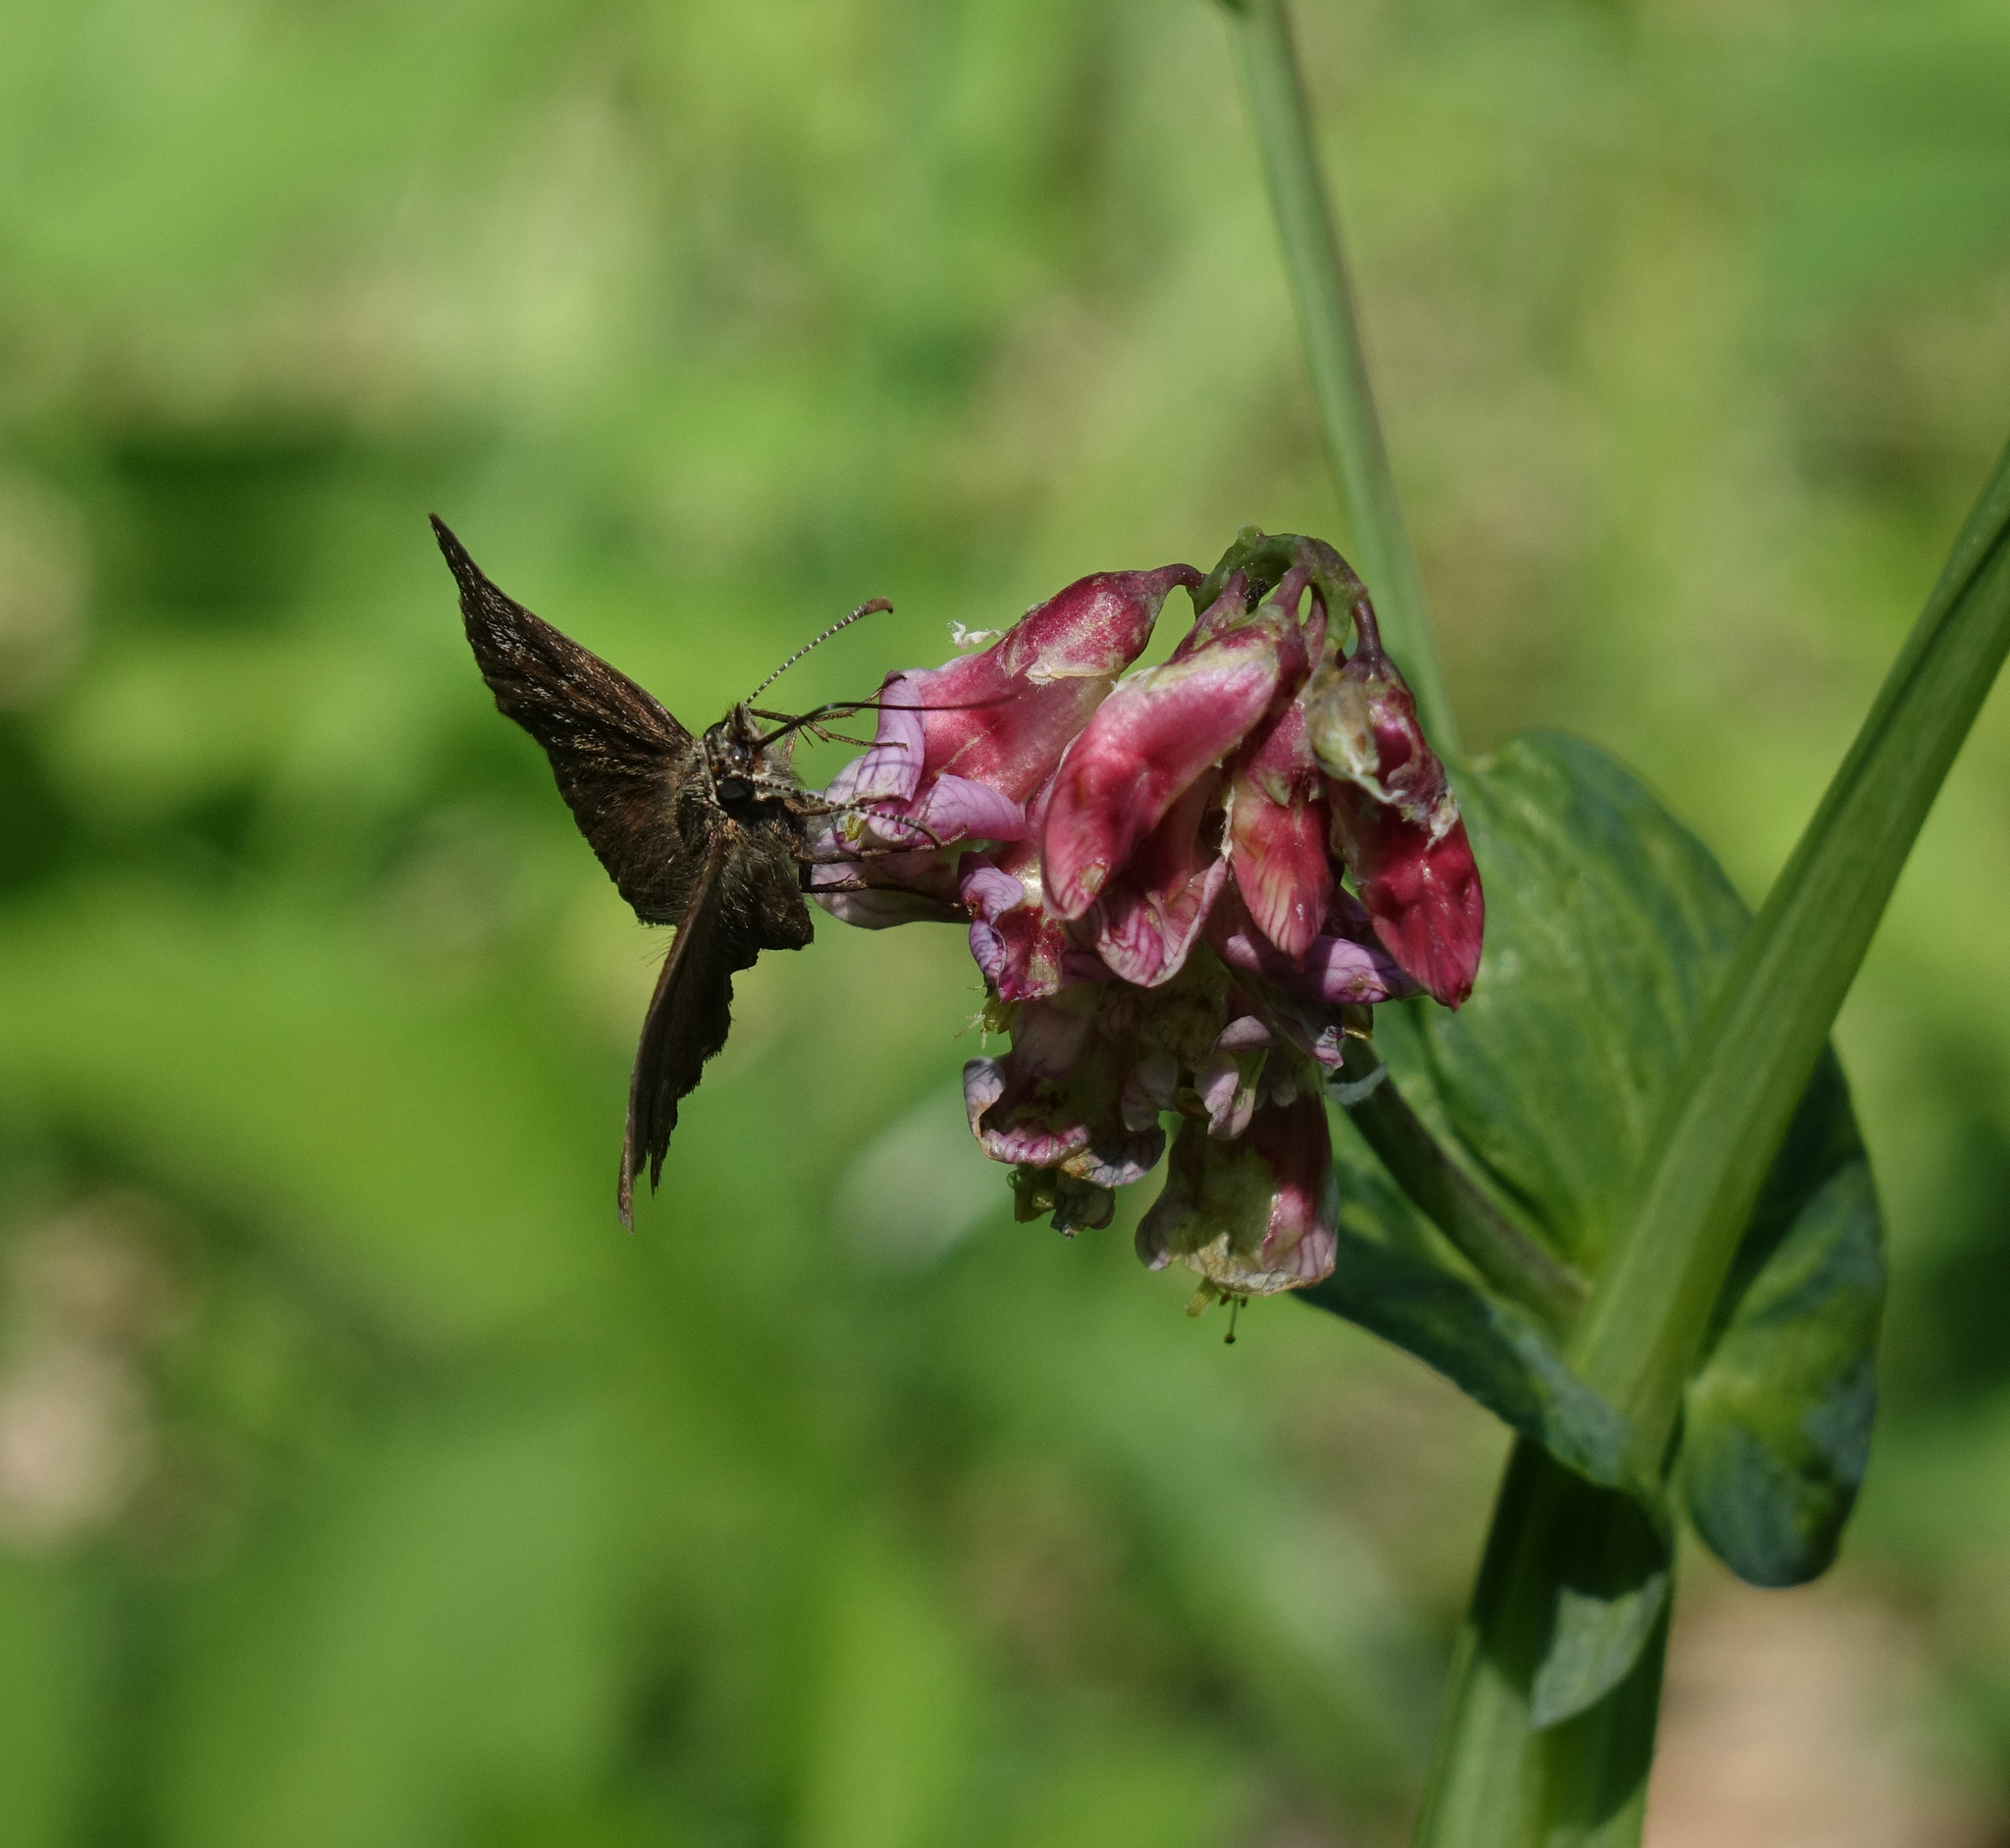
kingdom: Animalia
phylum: Arthropoda
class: Insecta
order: Lepidoptera
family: Hesperiidae
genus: Erynnis
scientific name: Erynnis tages
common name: Dingy skipper
